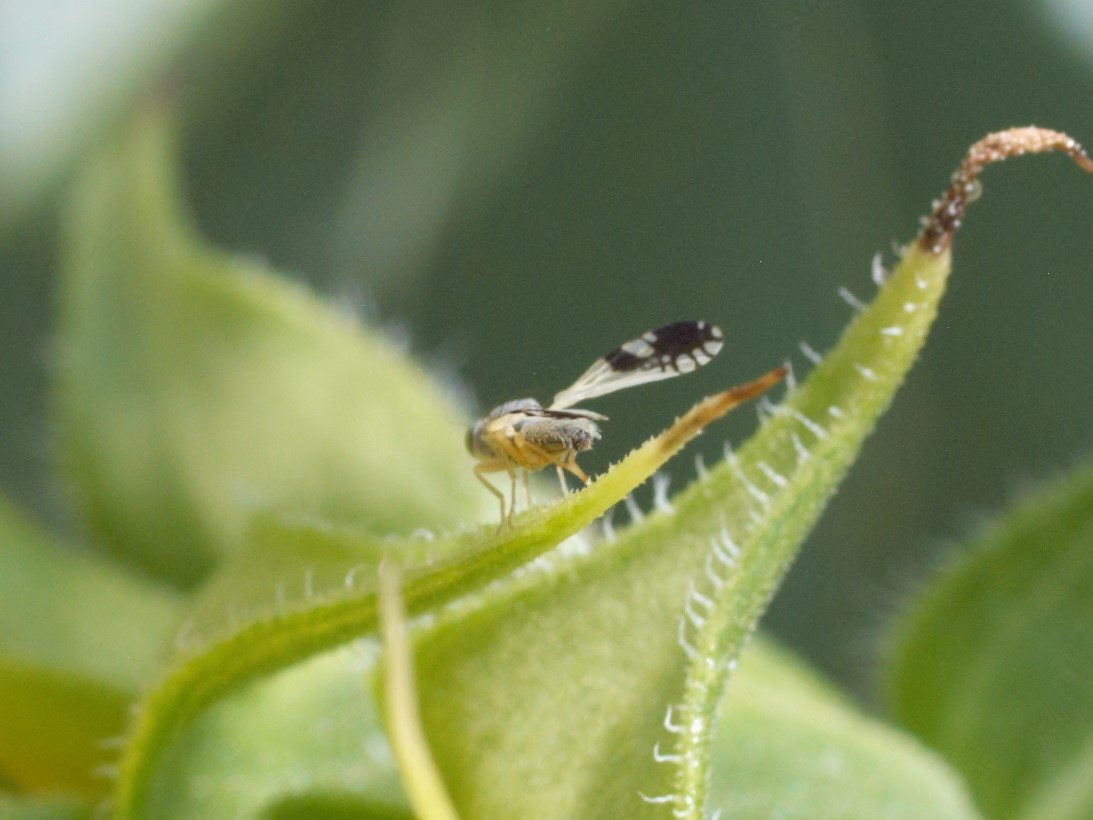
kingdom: Animalia
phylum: Arthropoda
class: Insecta
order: Diptera
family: Tephritidae
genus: Trupanea
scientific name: Trupanea bisetosa
